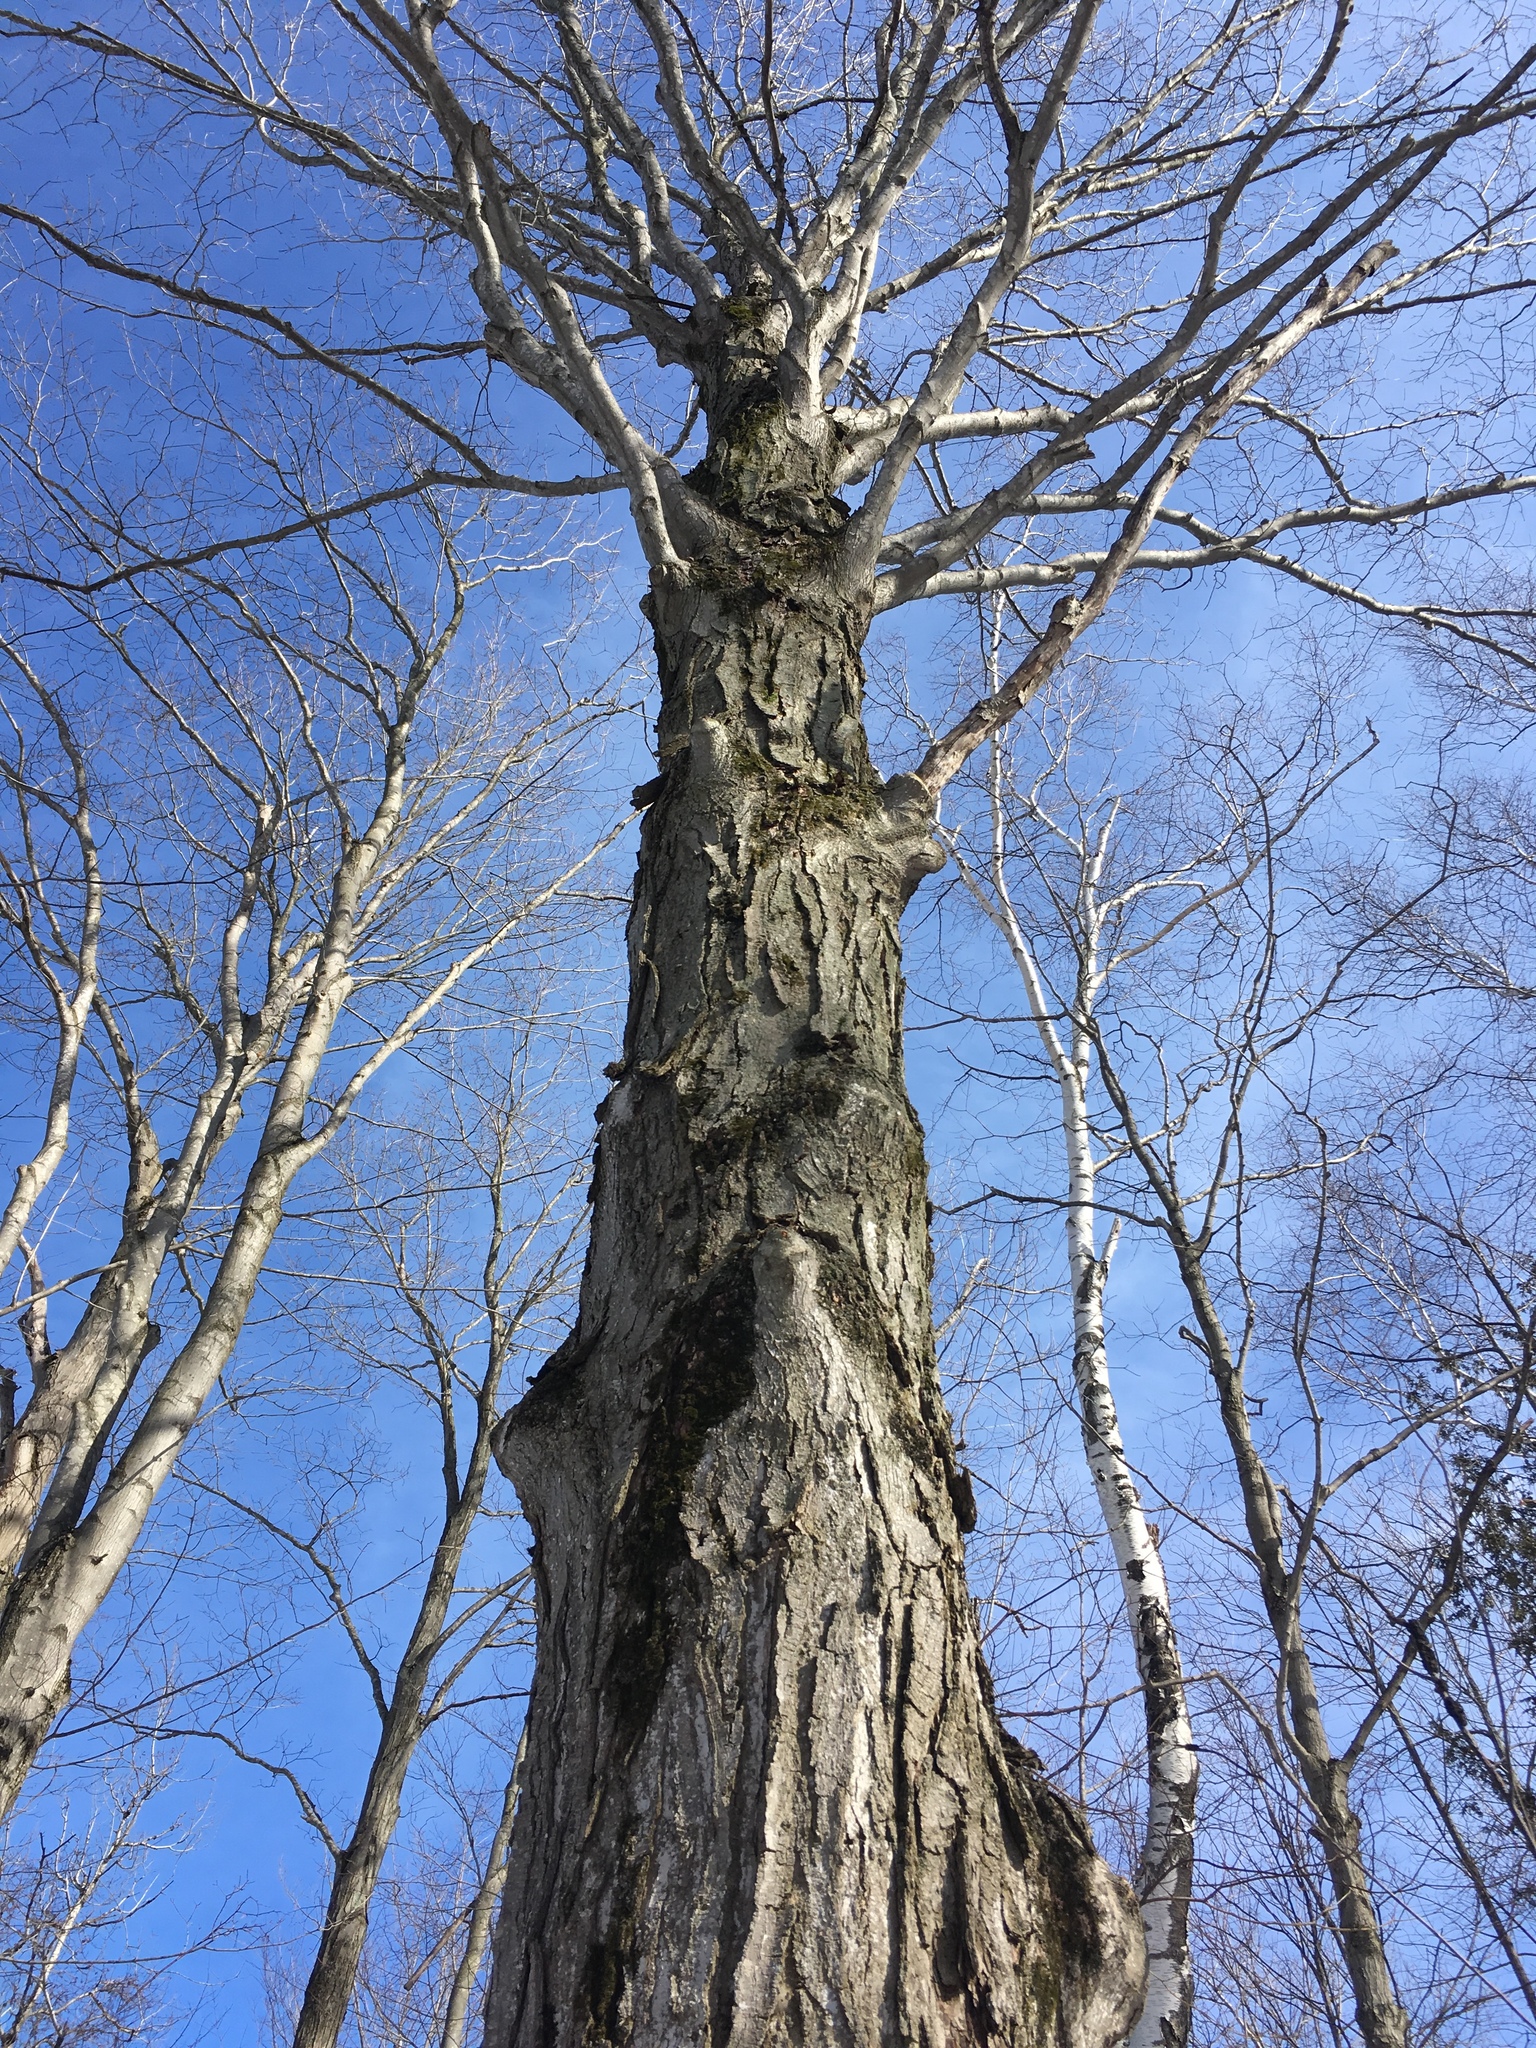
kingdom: Plantae
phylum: Tracheophyta
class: Magnoliopsida
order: Sapindales
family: Sapindaceae
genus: Acer
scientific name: Acer saccharum
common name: Sugar maple
